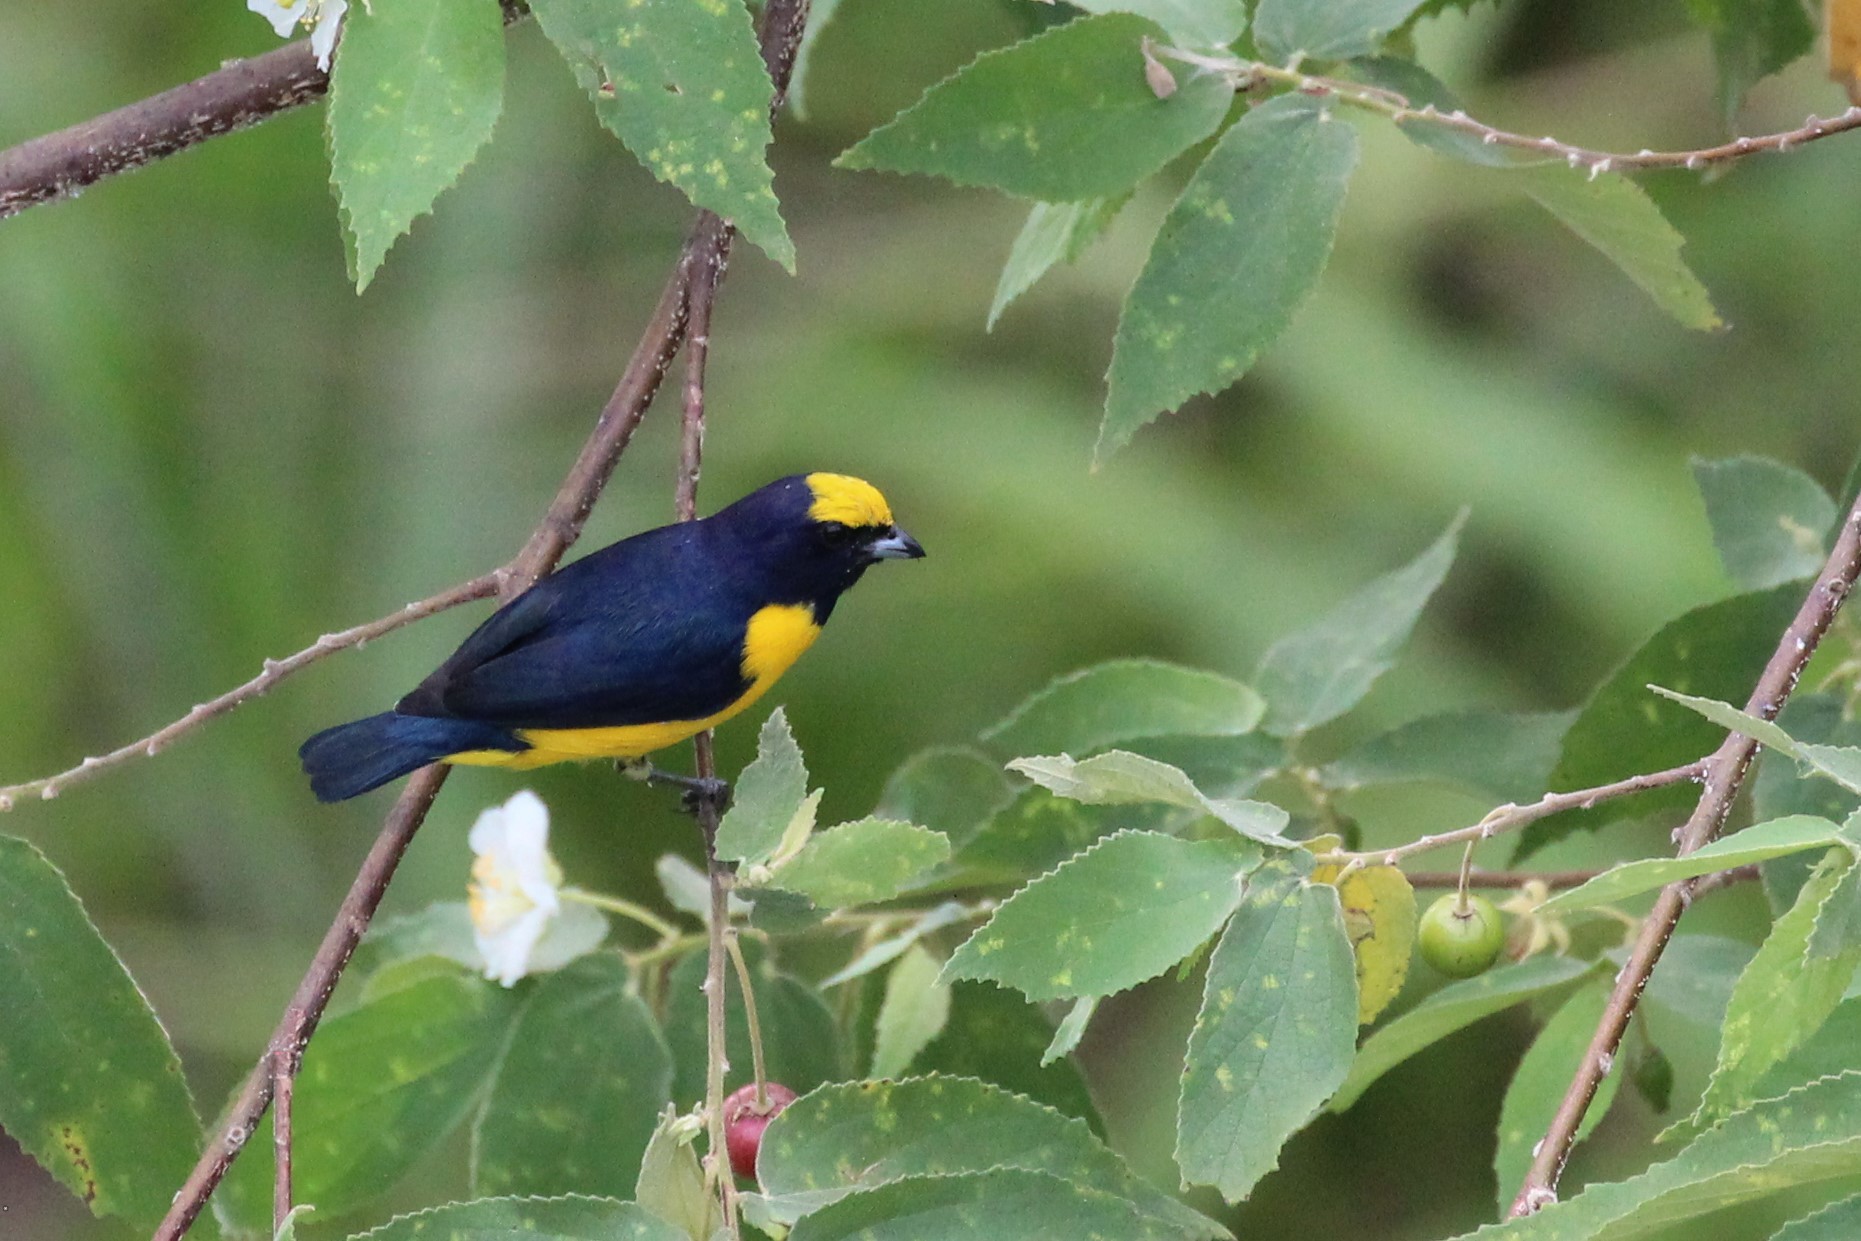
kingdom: Animalia
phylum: Chordata
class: Aves
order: Passeriformes
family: Fringillidae
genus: Euphonia
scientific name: Euphonia affinis
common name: Scrub euphonia
